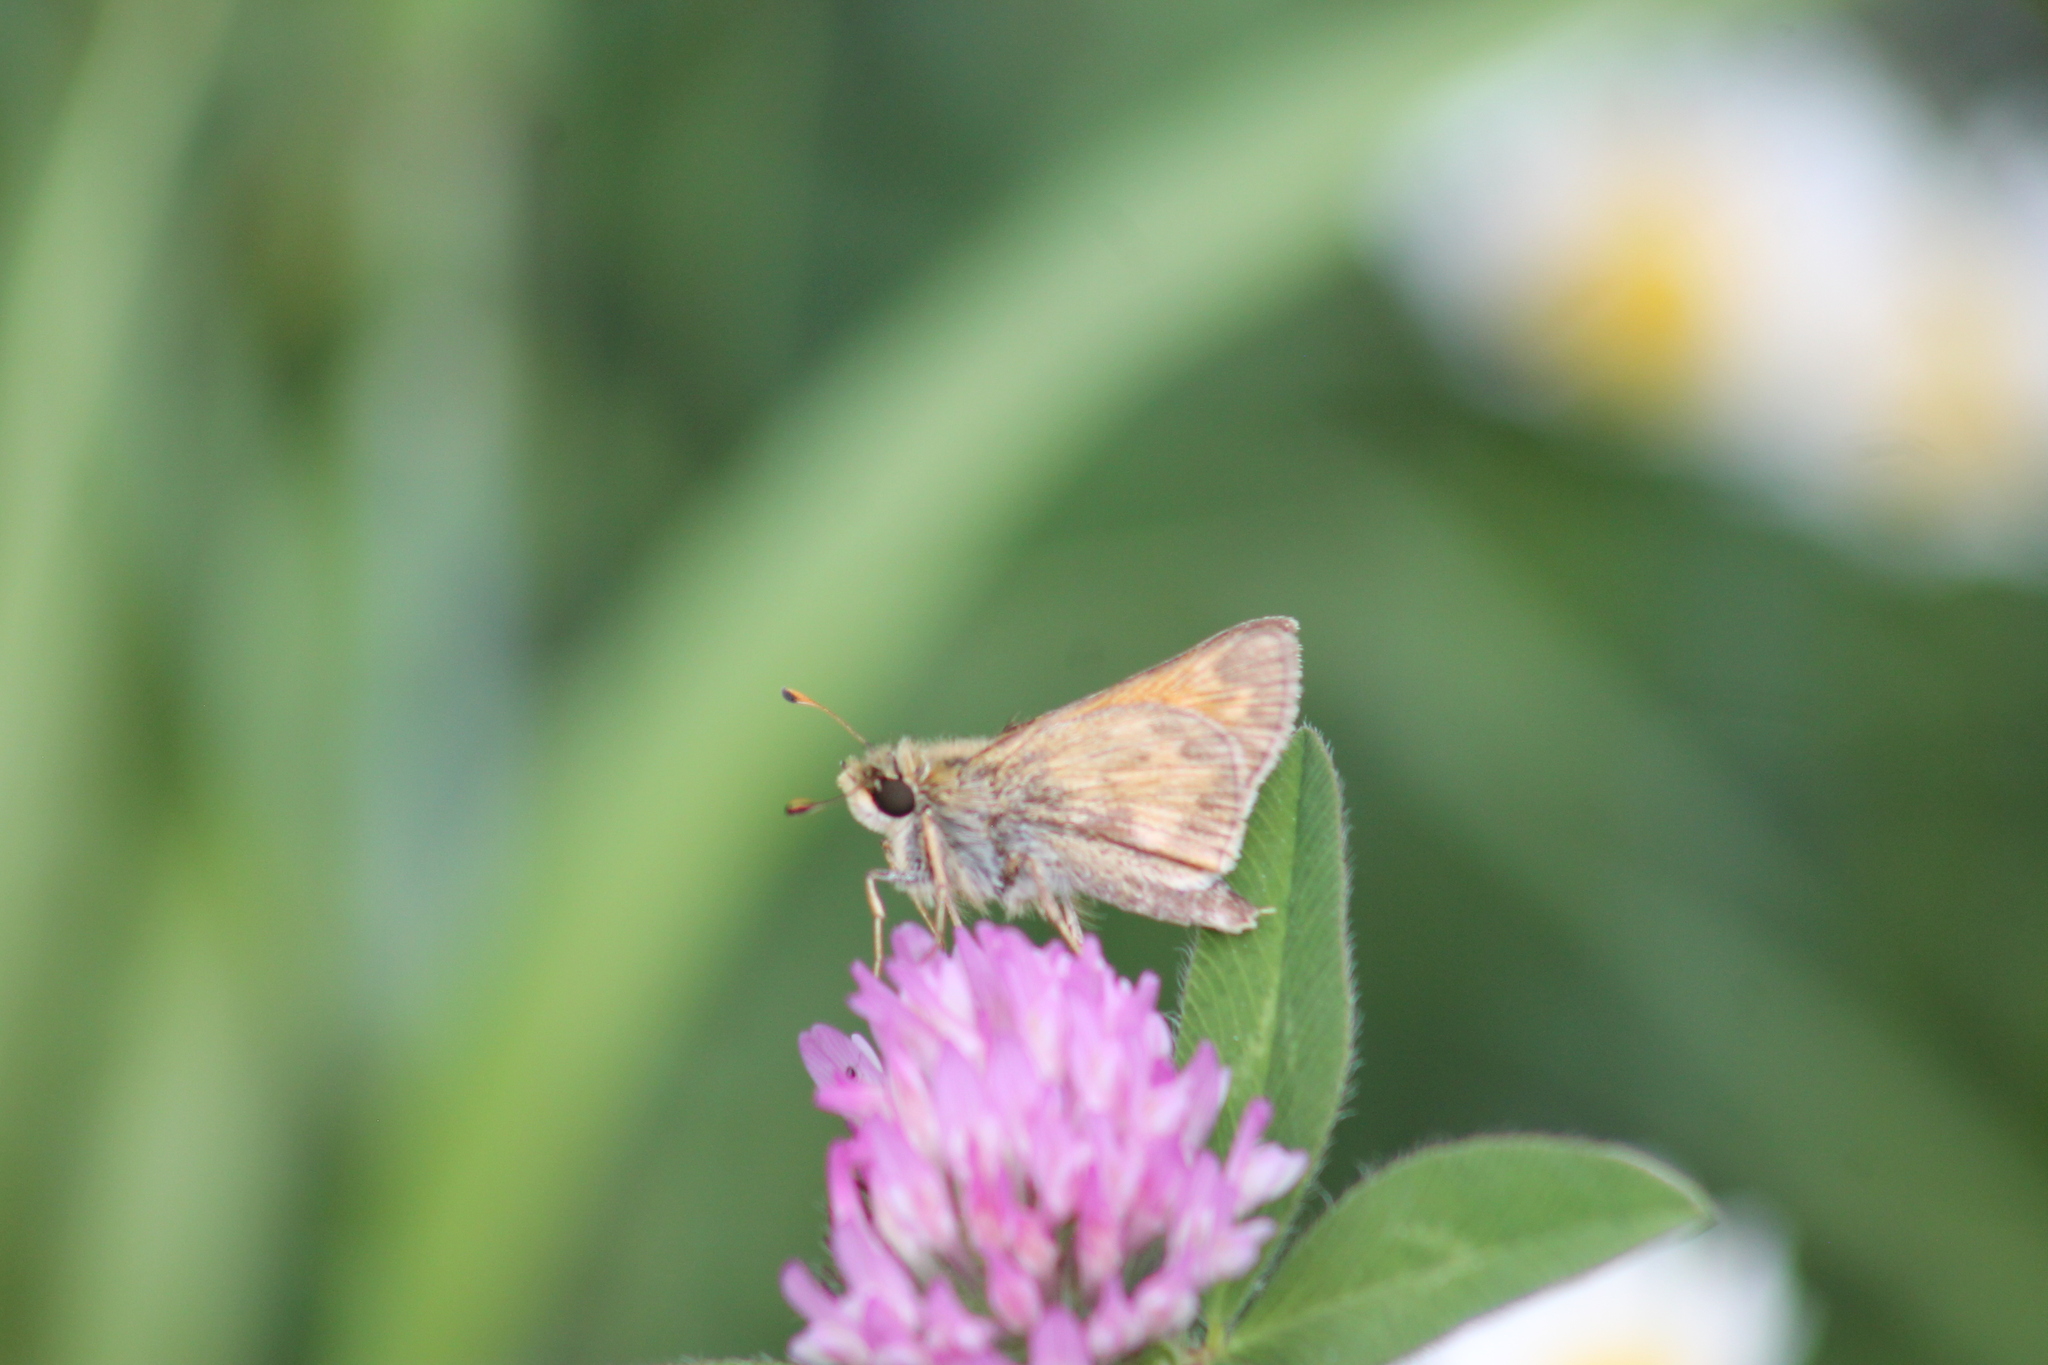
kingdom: Animalia
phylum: Arthropoda
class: Insecta
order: Lepidoptera
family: Hesperiidae
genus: Atalopedes
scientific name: Atalopedes
